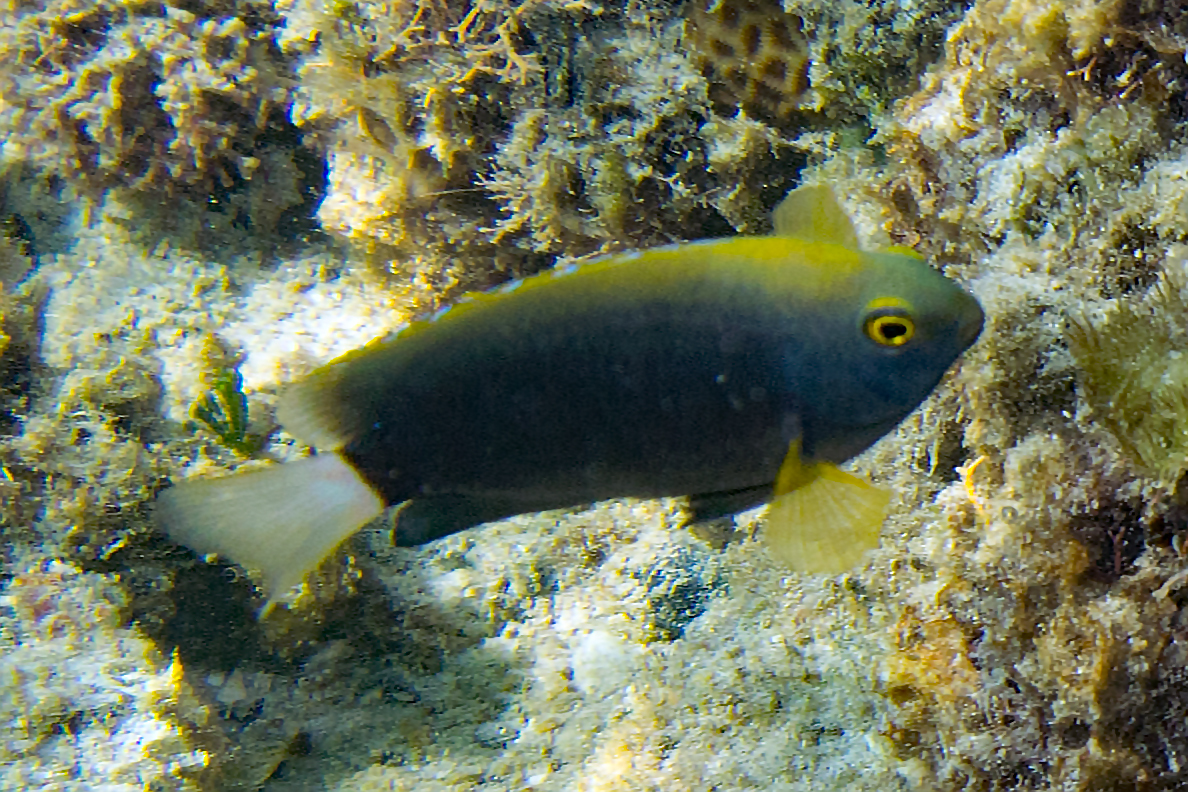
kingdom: Animalia
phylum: Chordata
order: Perciformes
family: Pomacentridae
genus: Pomacentrus
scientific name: Pomacentrus chrysurus
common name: White-tail damsel
